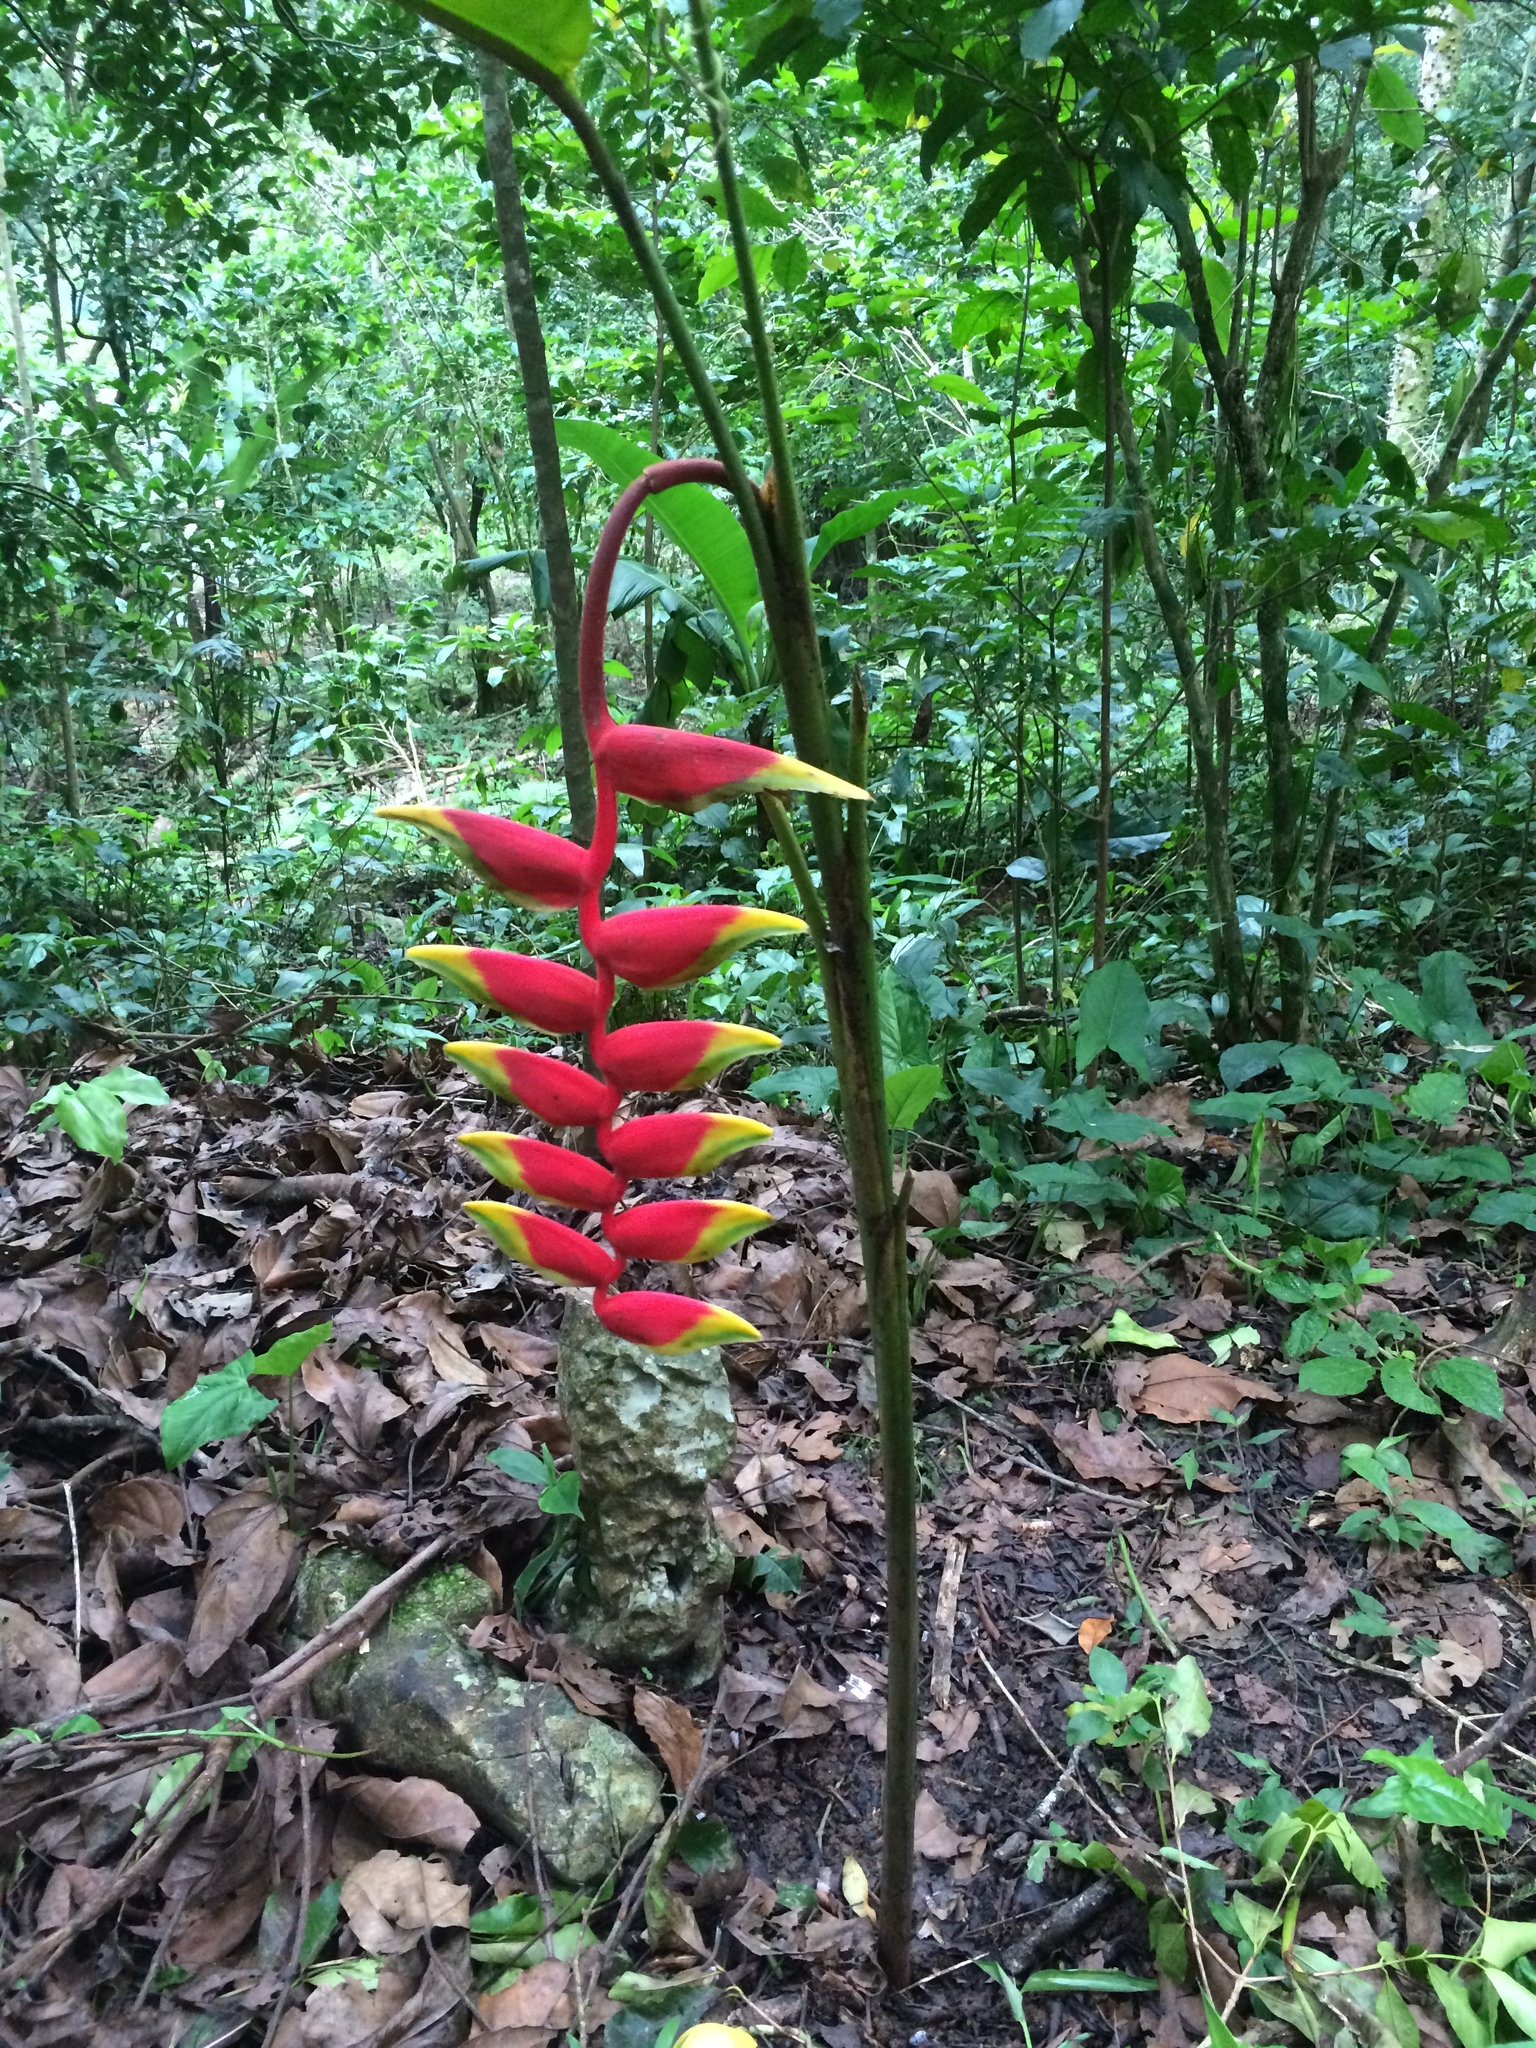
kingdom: Plantae
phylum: Tracheophyta
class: Liliopsida
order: Zingiberales
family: Heliconiaceae
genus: Heliconia
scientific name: Heliconia rostrata
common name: False bird of paradise
